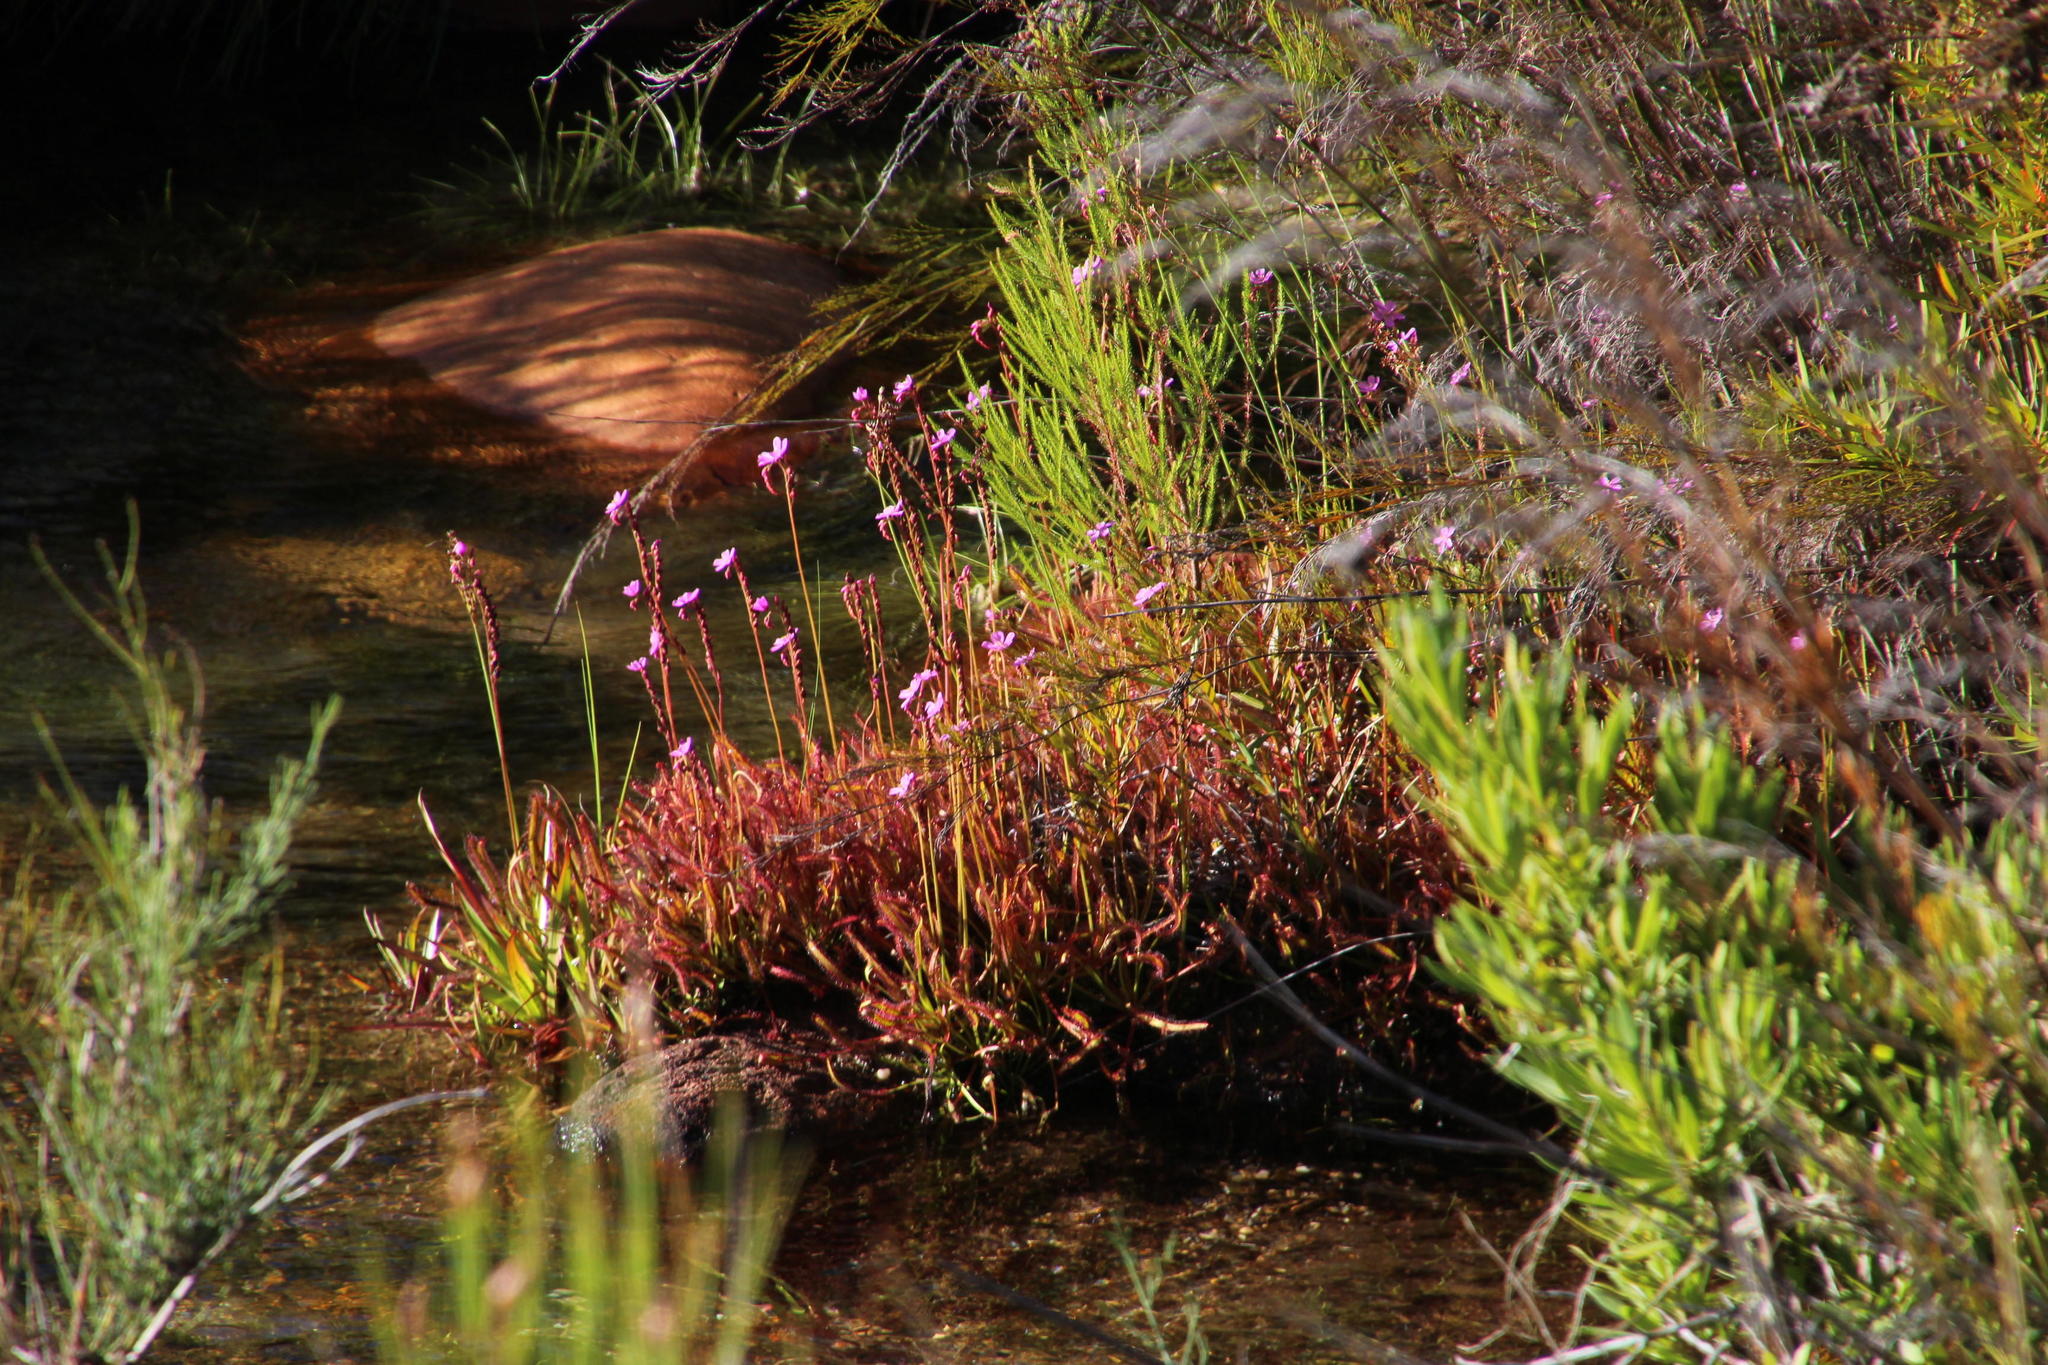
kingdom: Plantae
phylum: Tracheophyta
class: Magnoliopsida
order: Caryophyllales
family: Droseraceae
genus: Drosera
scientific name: Drosera capensis
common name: Cape sundew
